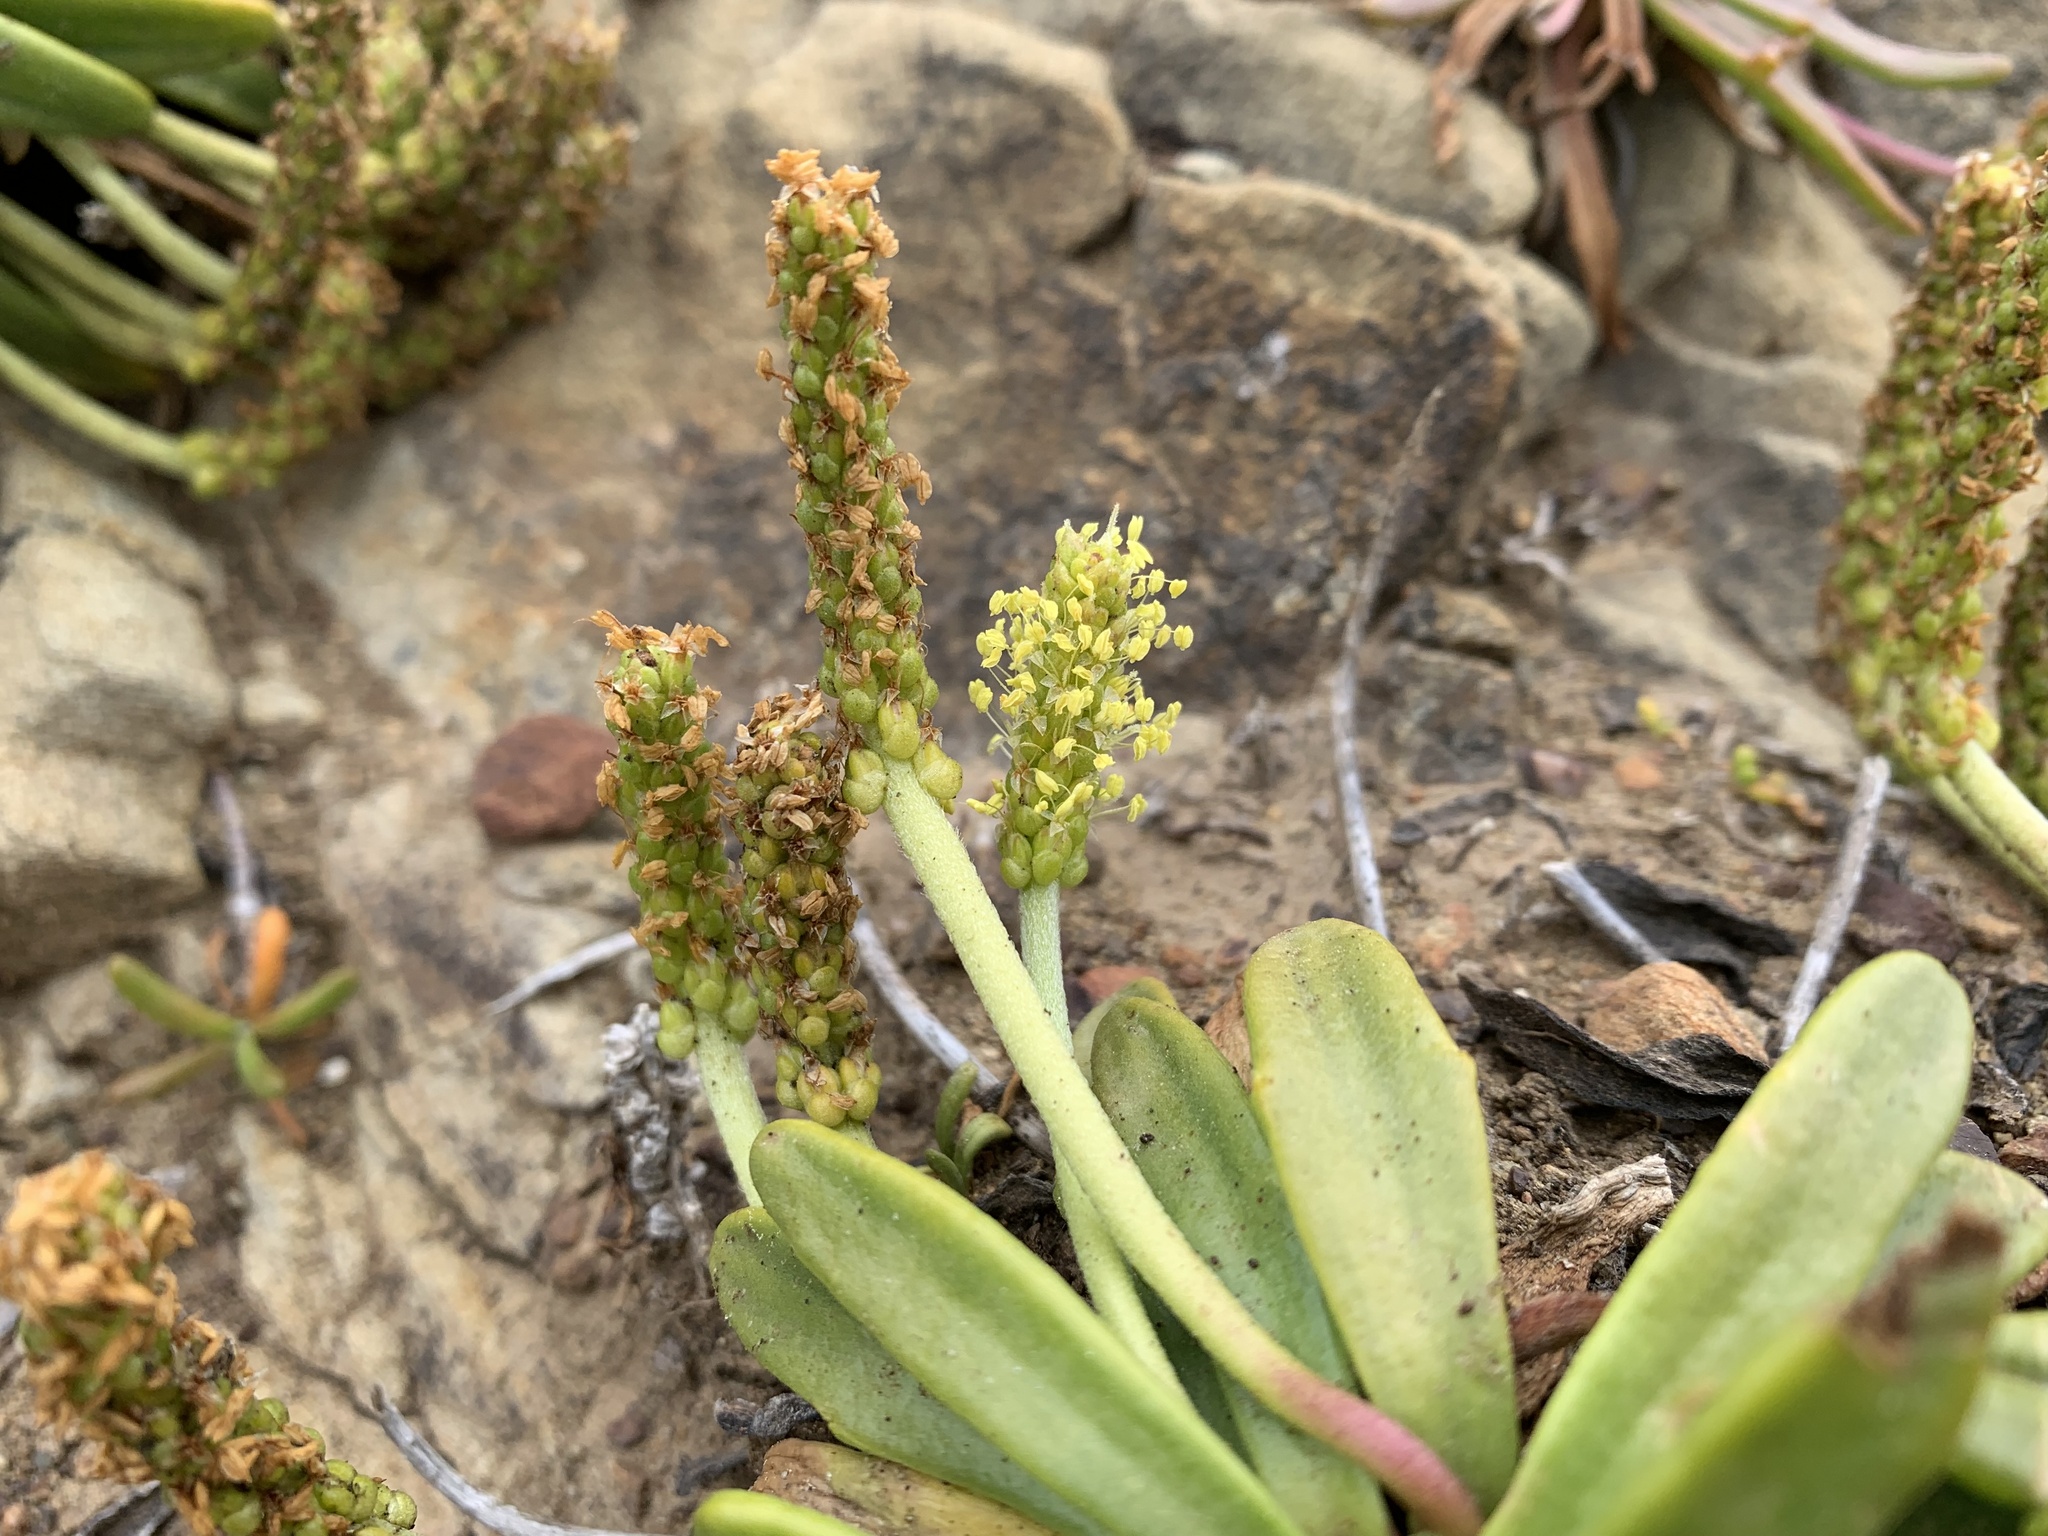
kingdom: Plantae
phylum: Tracheophyta
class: Magnoliopsida
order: Lamiales
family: Plantaginaceae
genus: Plantago
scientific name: Plantago maritima
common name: Sea plantain
